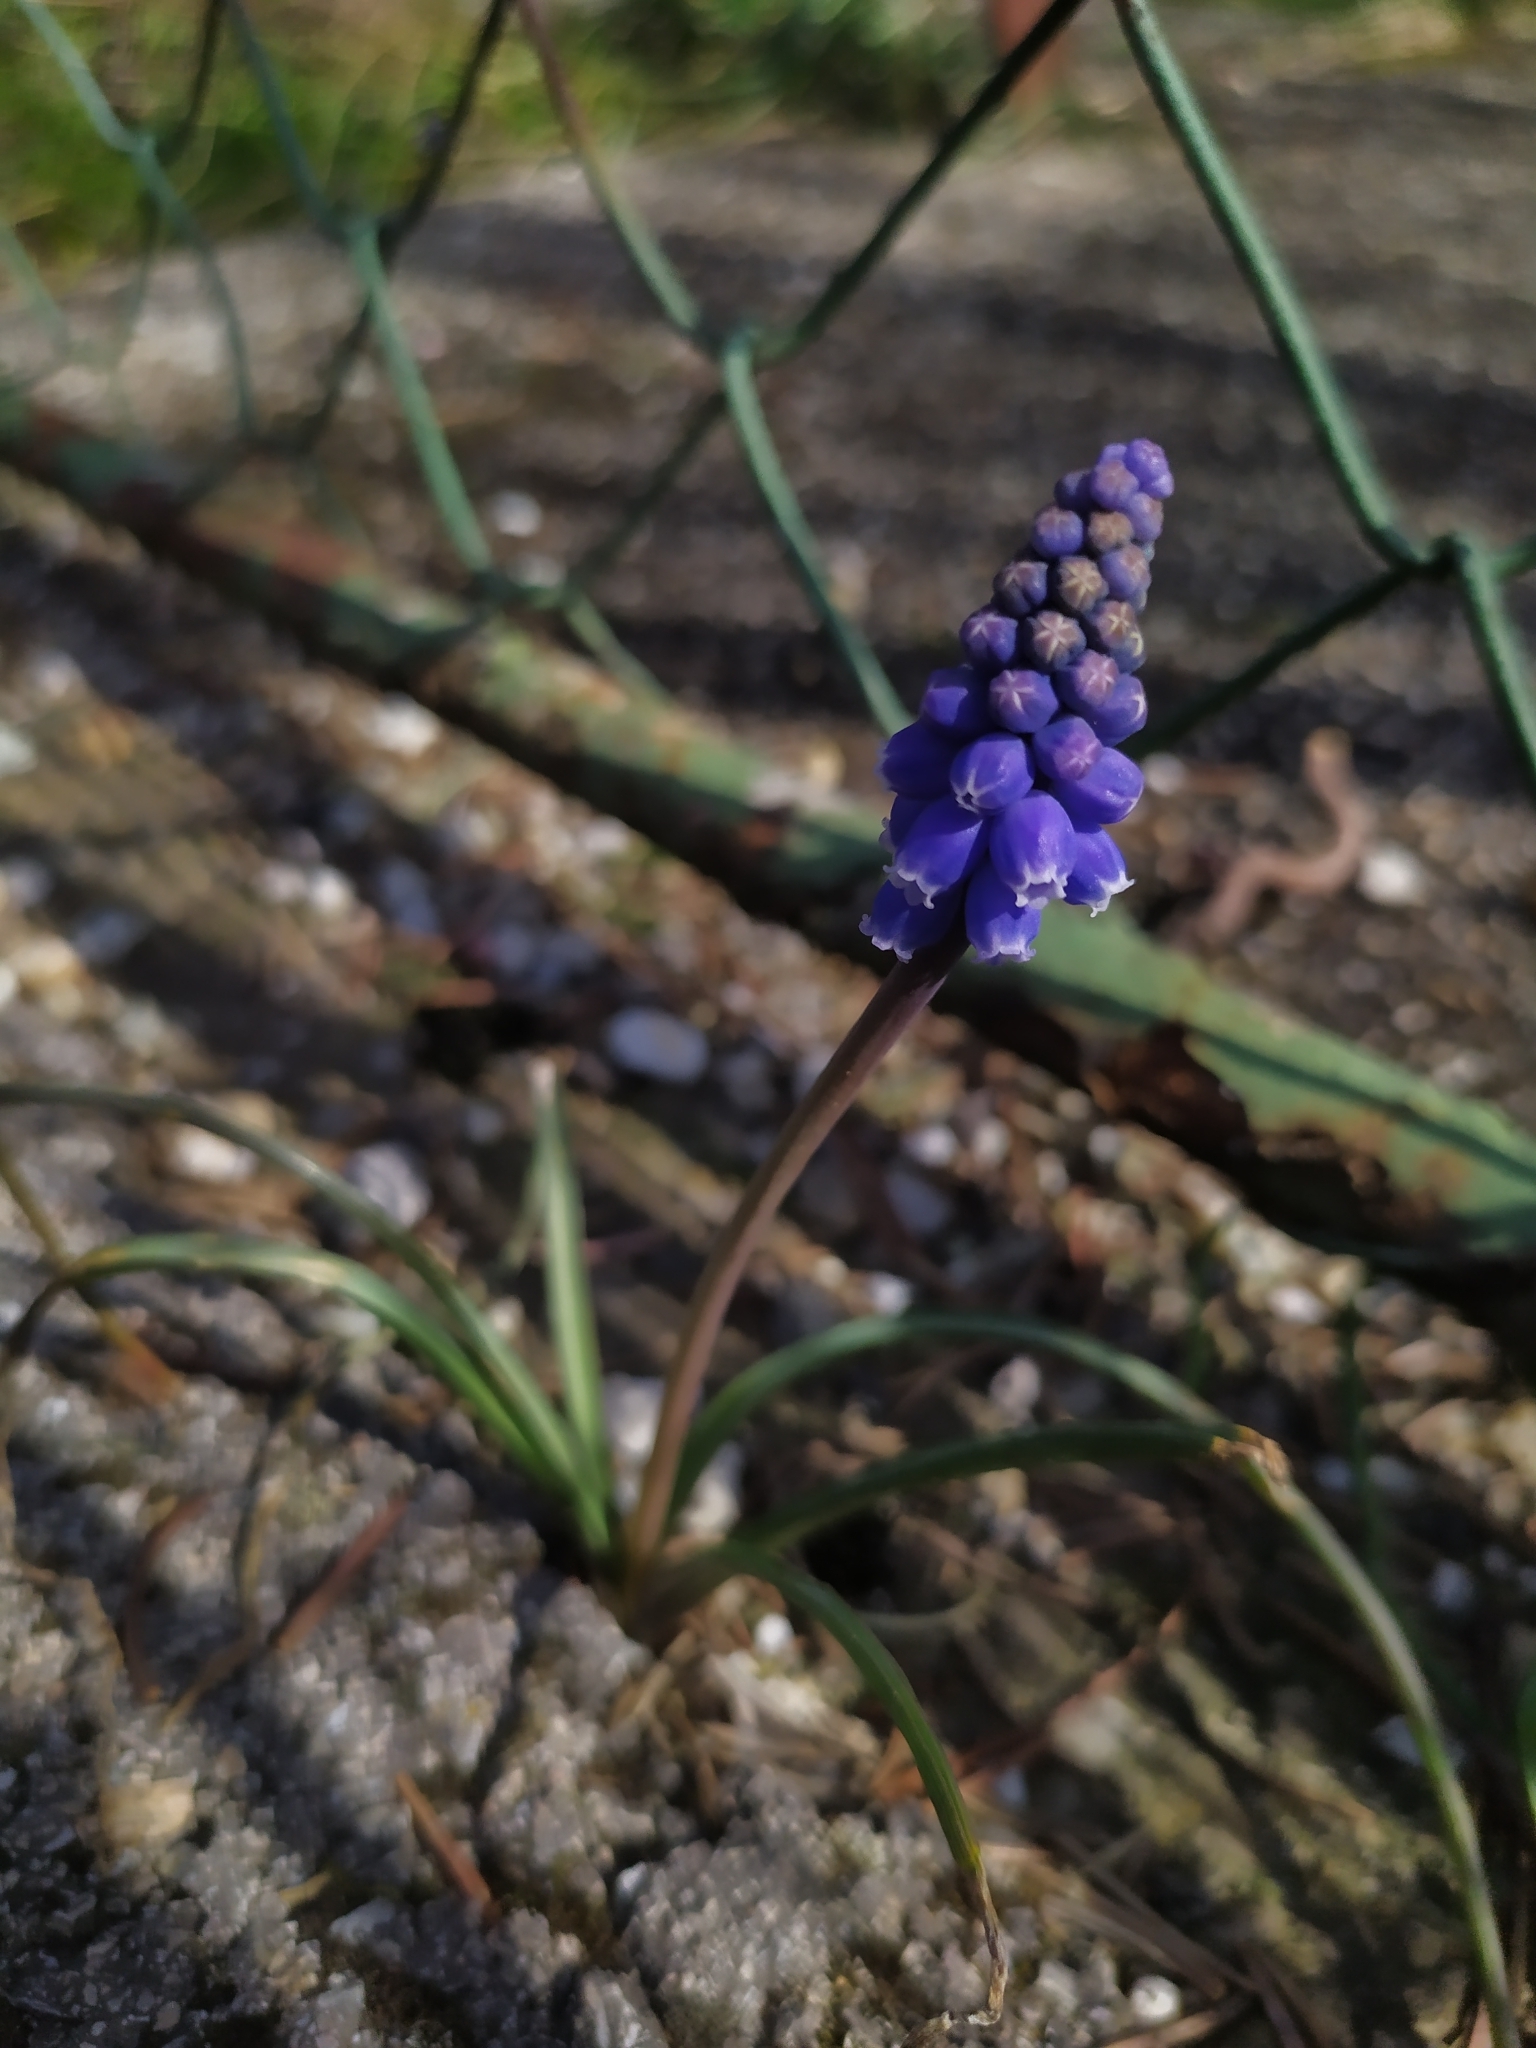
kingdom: Plantae
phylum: Tracheophyta
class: Liliopsida
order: Asparagales
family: Asparagaceae
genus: Muscari
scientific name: Muscari armeniacum
